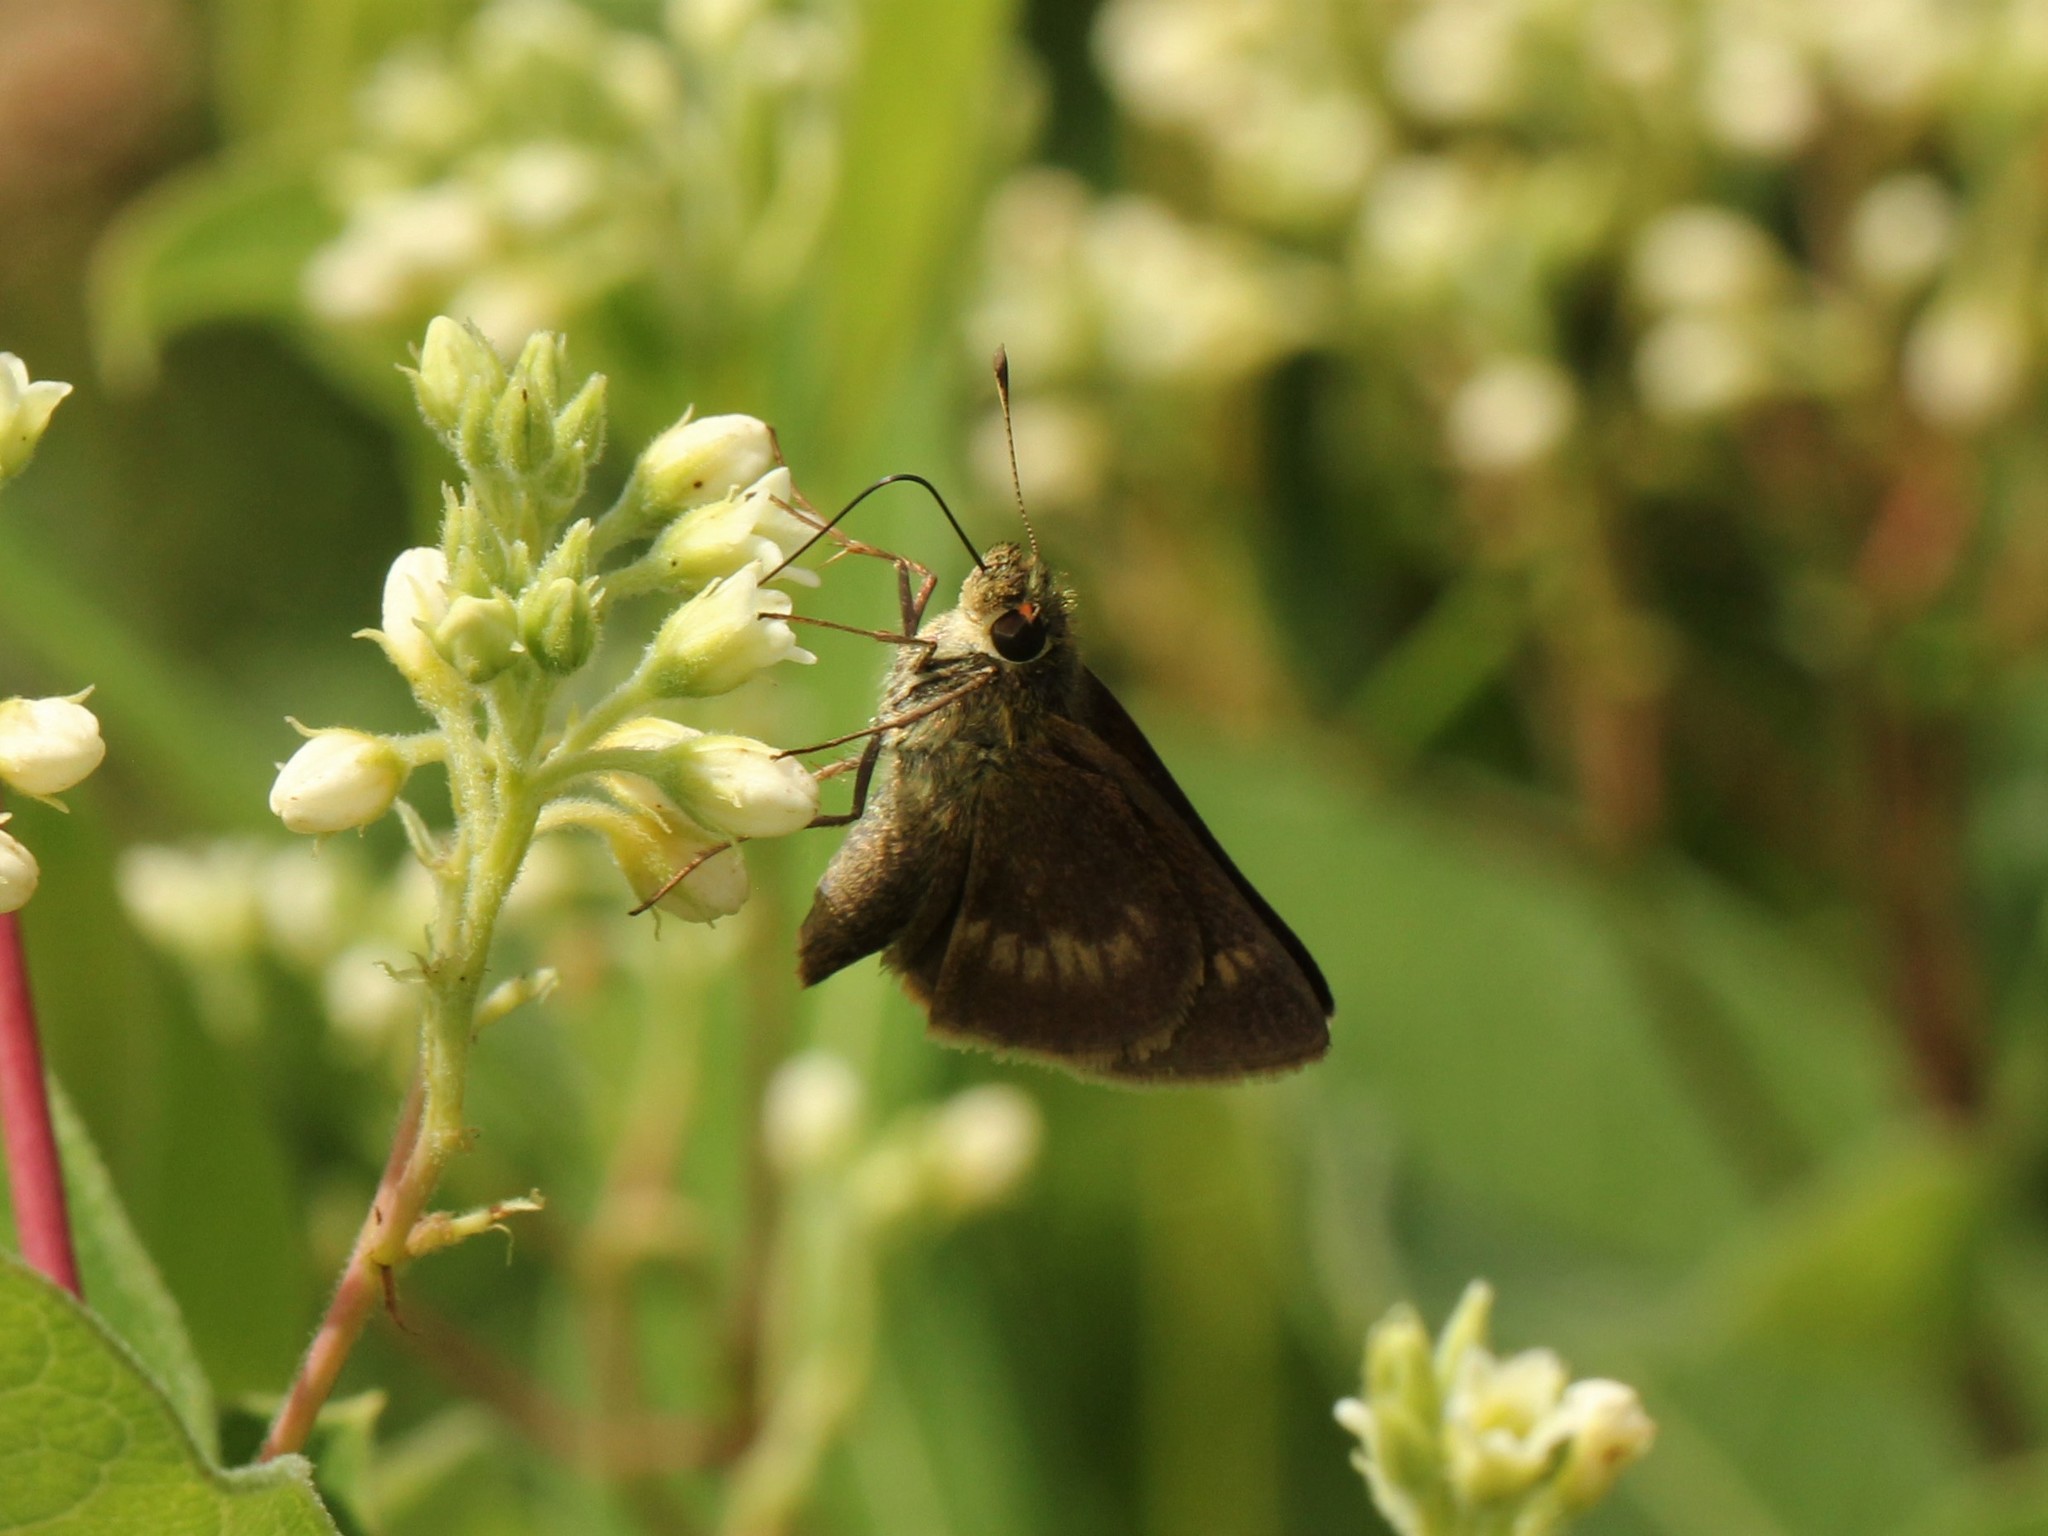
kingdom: Animalia
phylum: Arthropoda
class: Insecta
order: Lepidoptera
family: Hesperiidae
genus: Polites
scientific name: Polites egeremet
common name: Northern broken-dash
